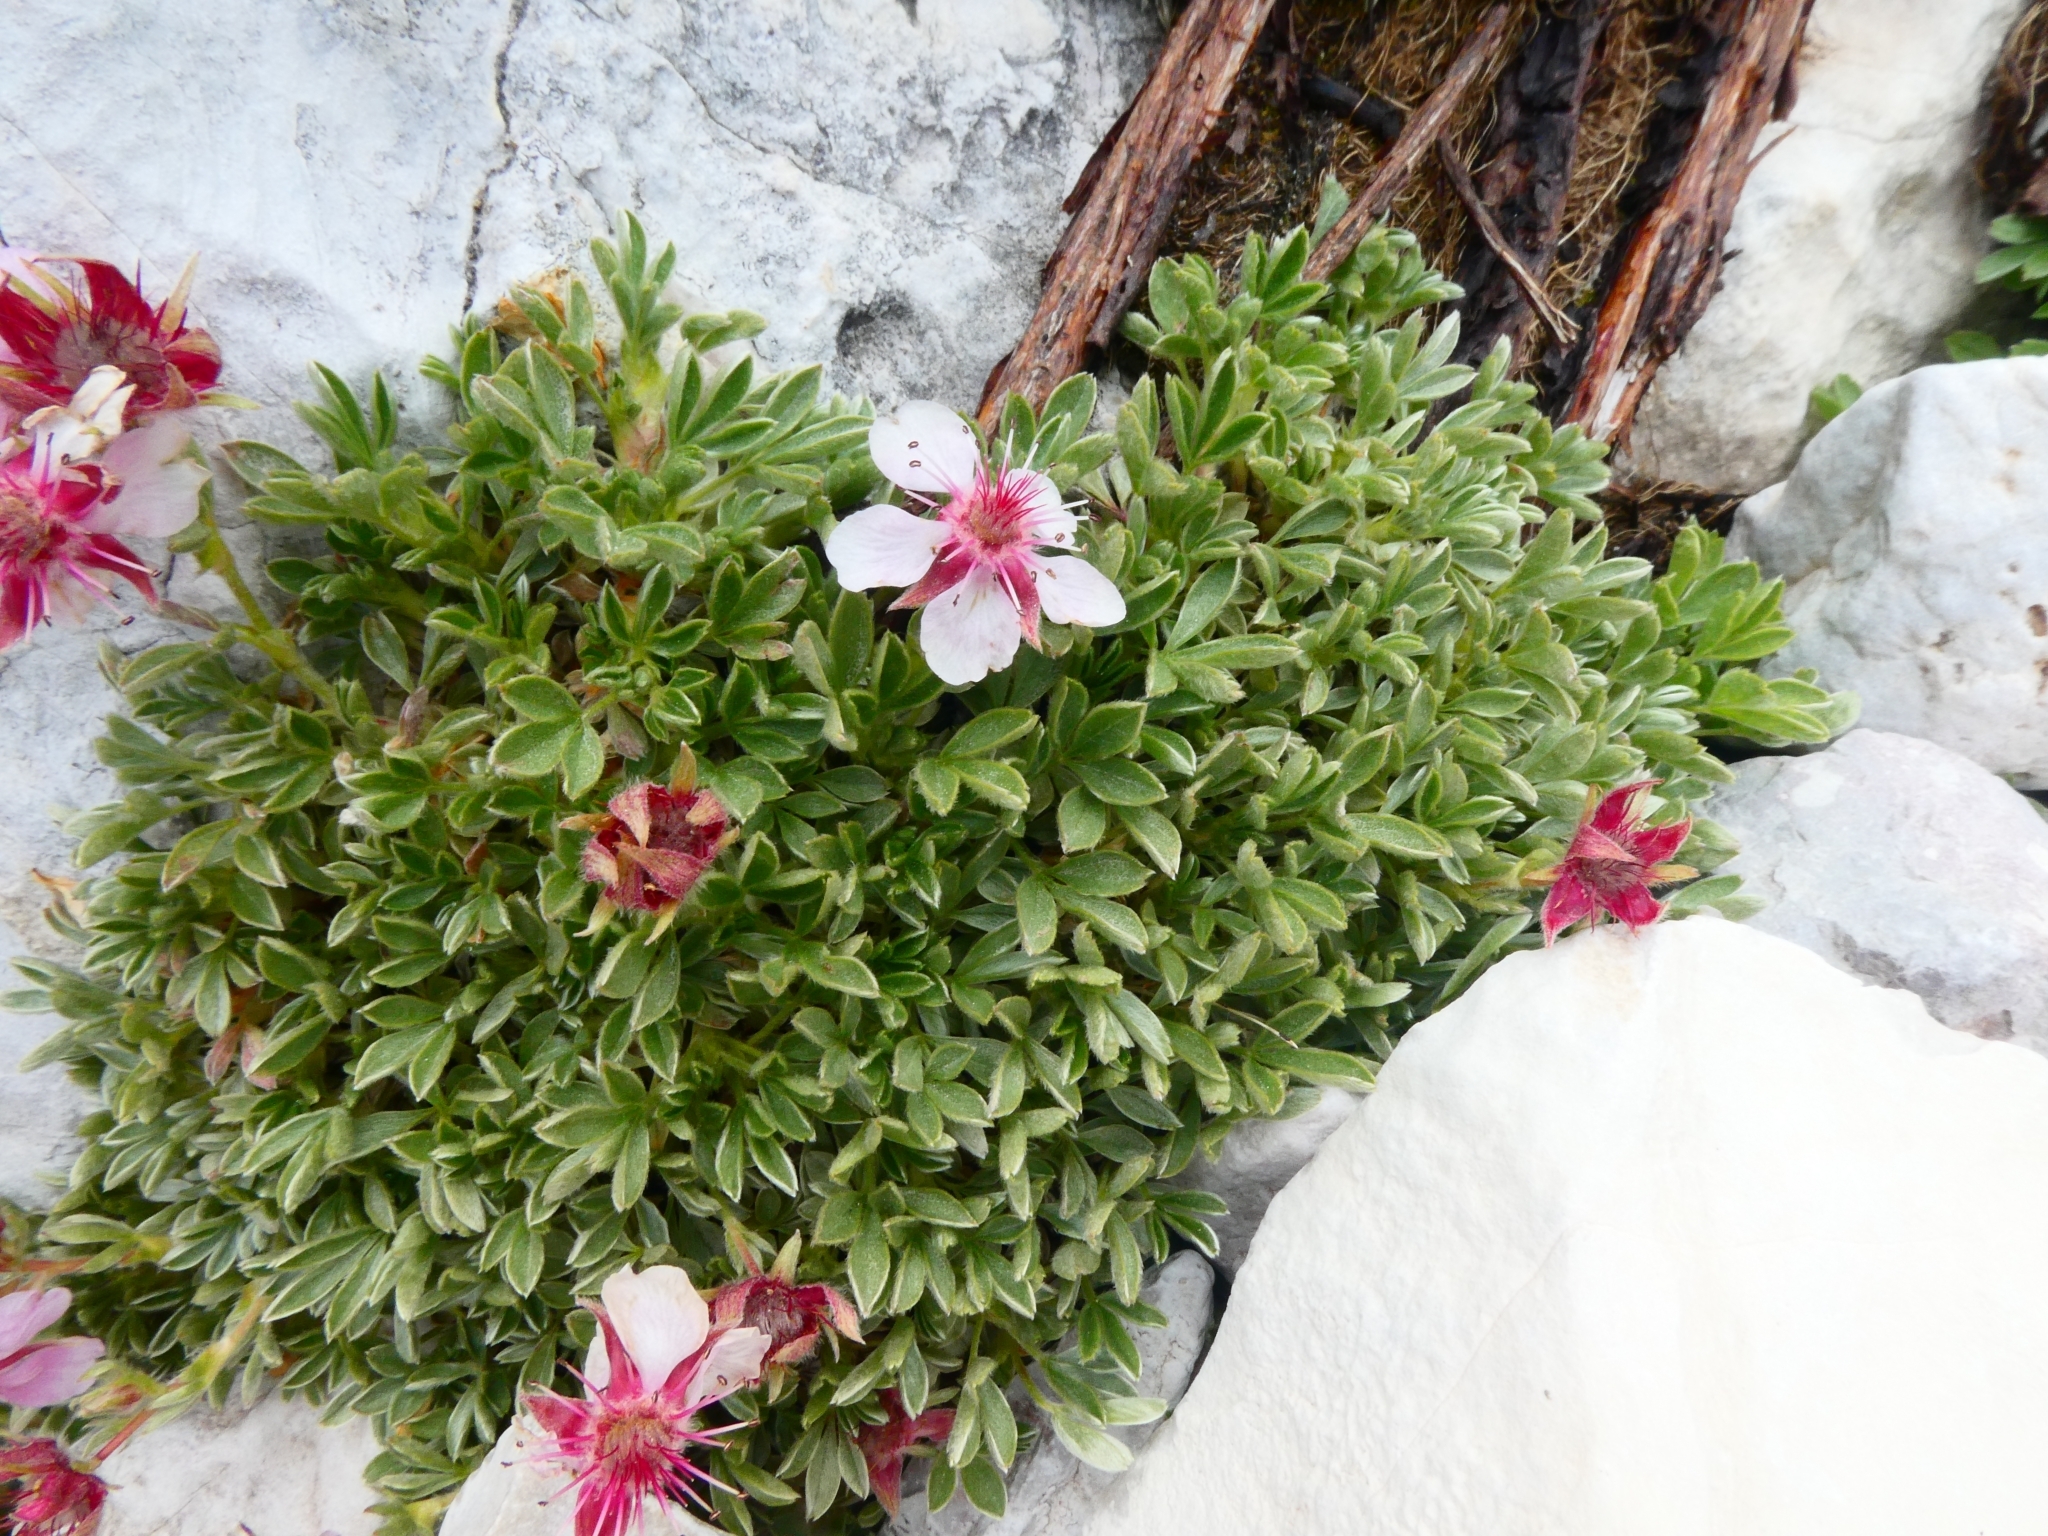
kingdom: Plantae
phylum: Tracheophyta
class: Magnoliopsida
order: Rosales
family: Rosaceae
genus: Potentilla
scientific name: Potentilla nitida
